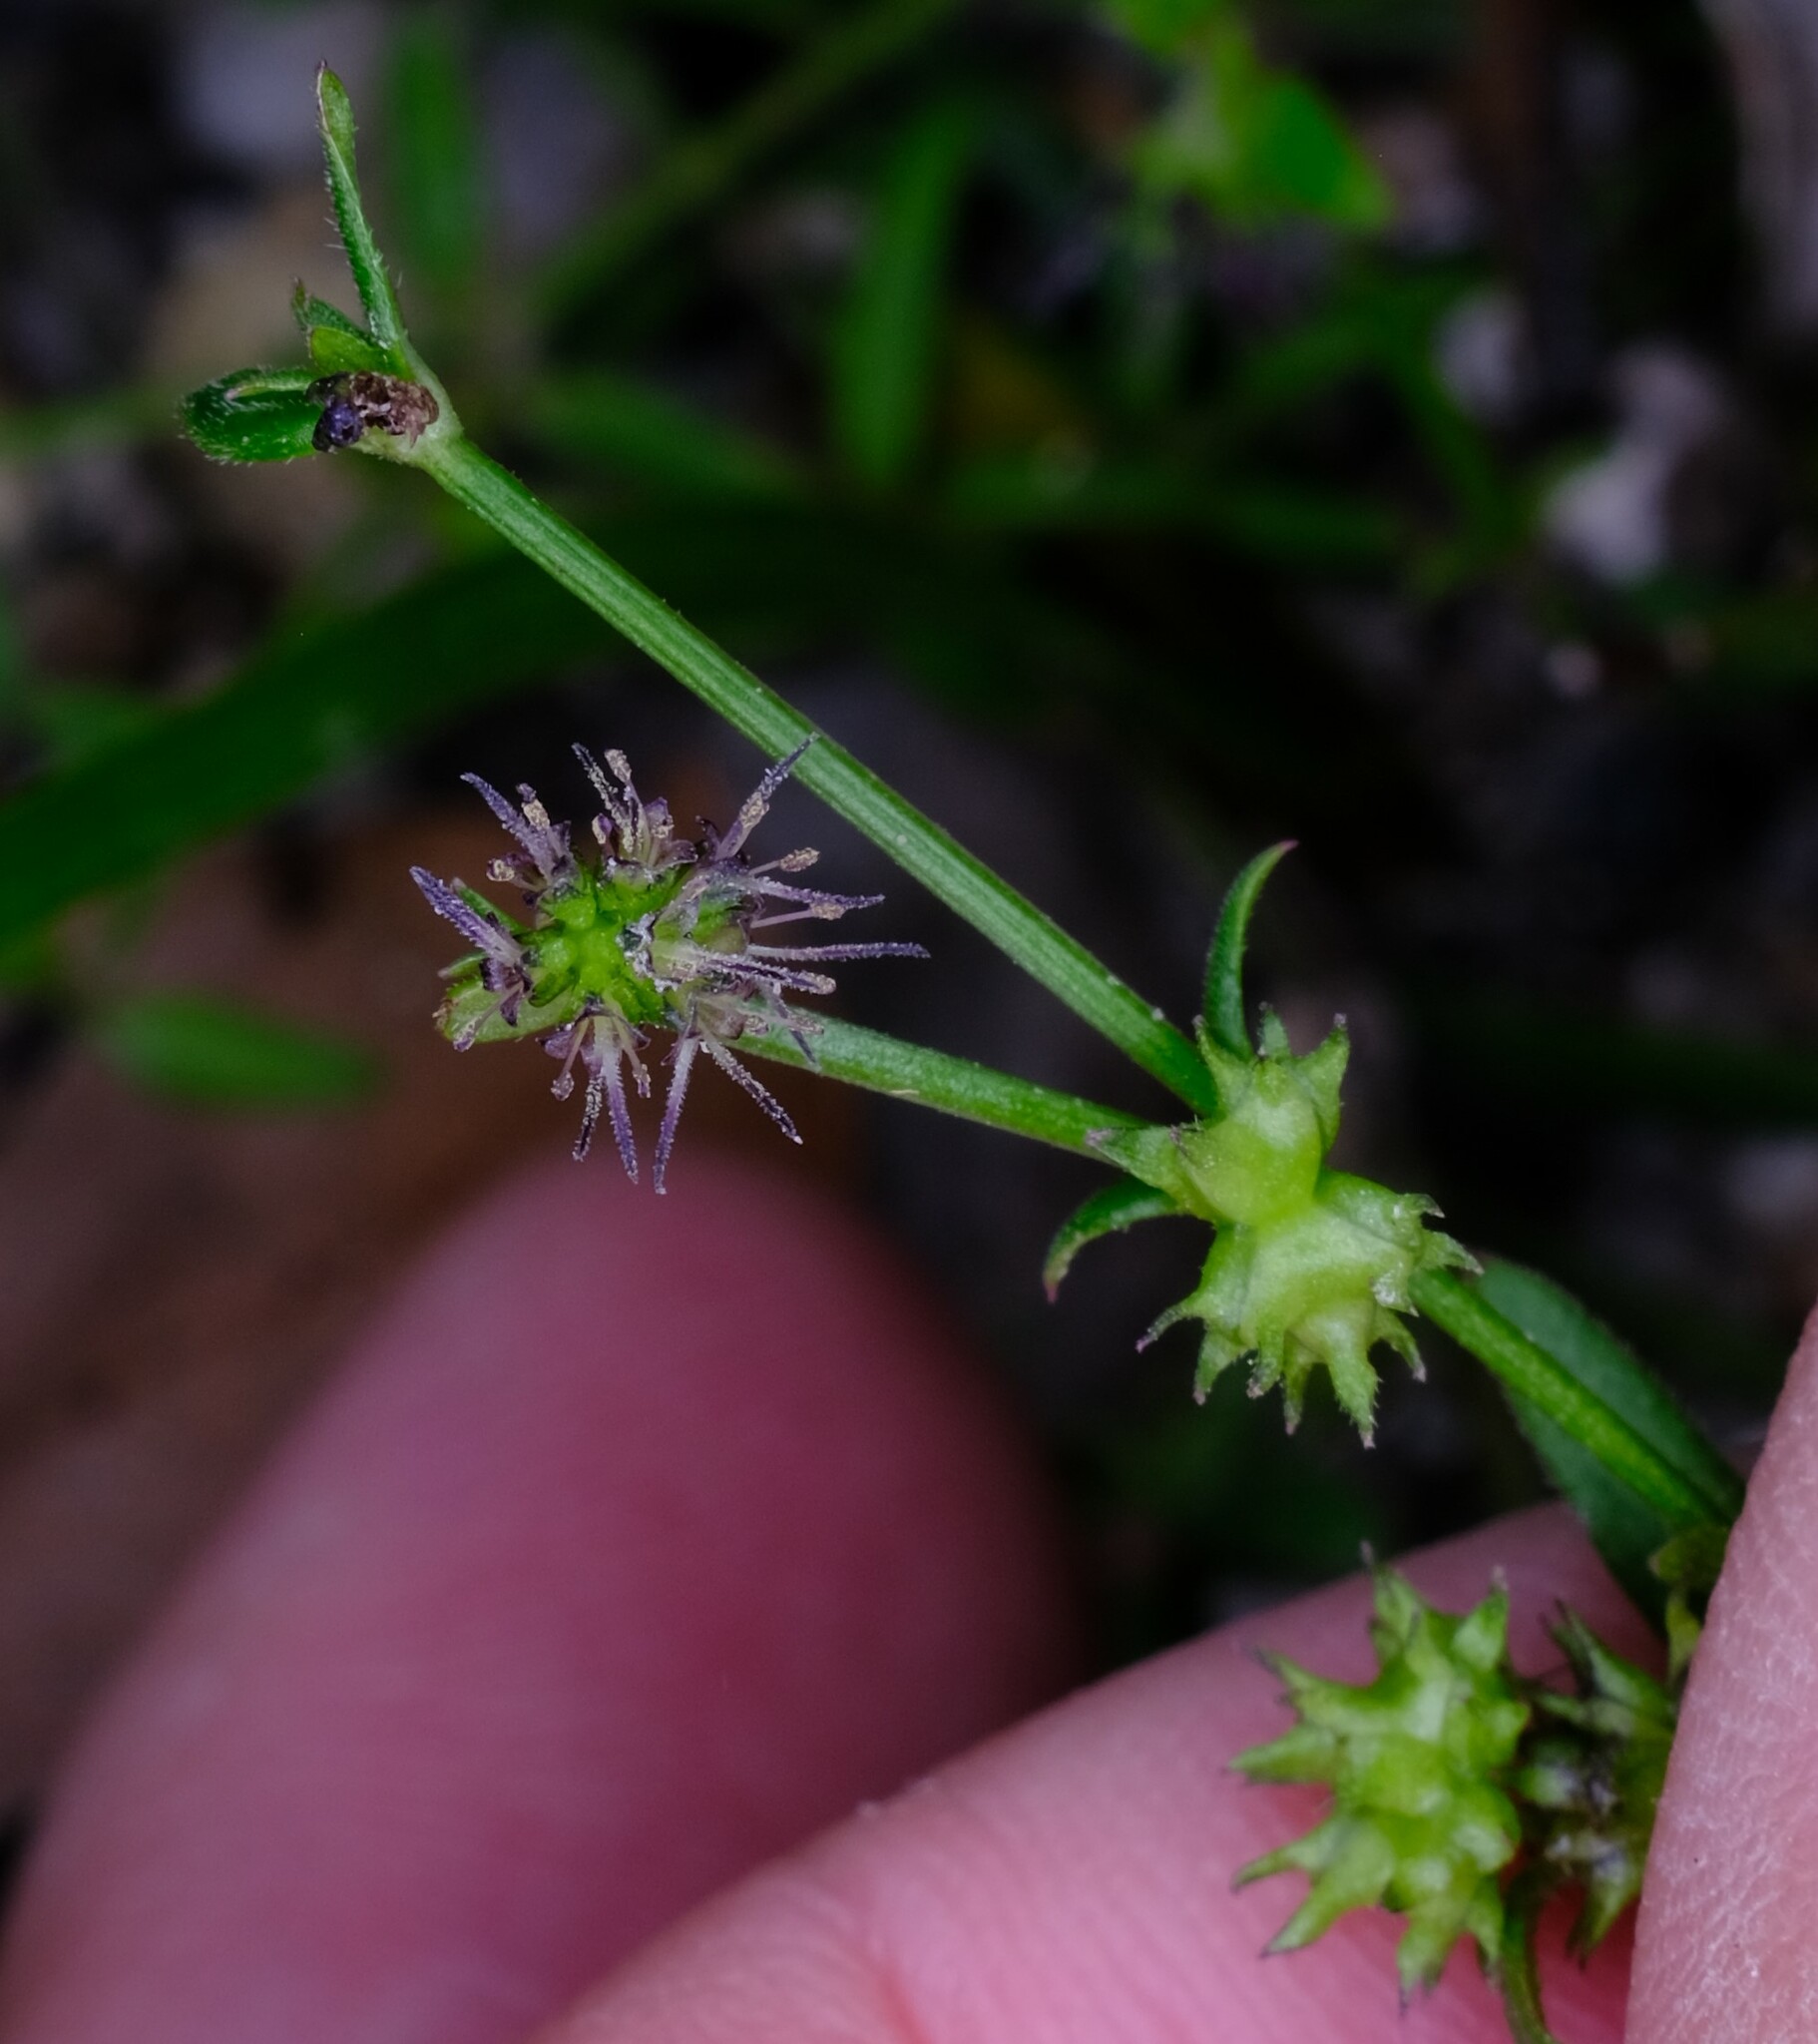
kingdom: Plantae
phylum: Tracheophyta
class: Magnoliopsida
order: Gentianales
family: Rubiaceae
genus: Opercularia
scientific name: Opercularia varia
